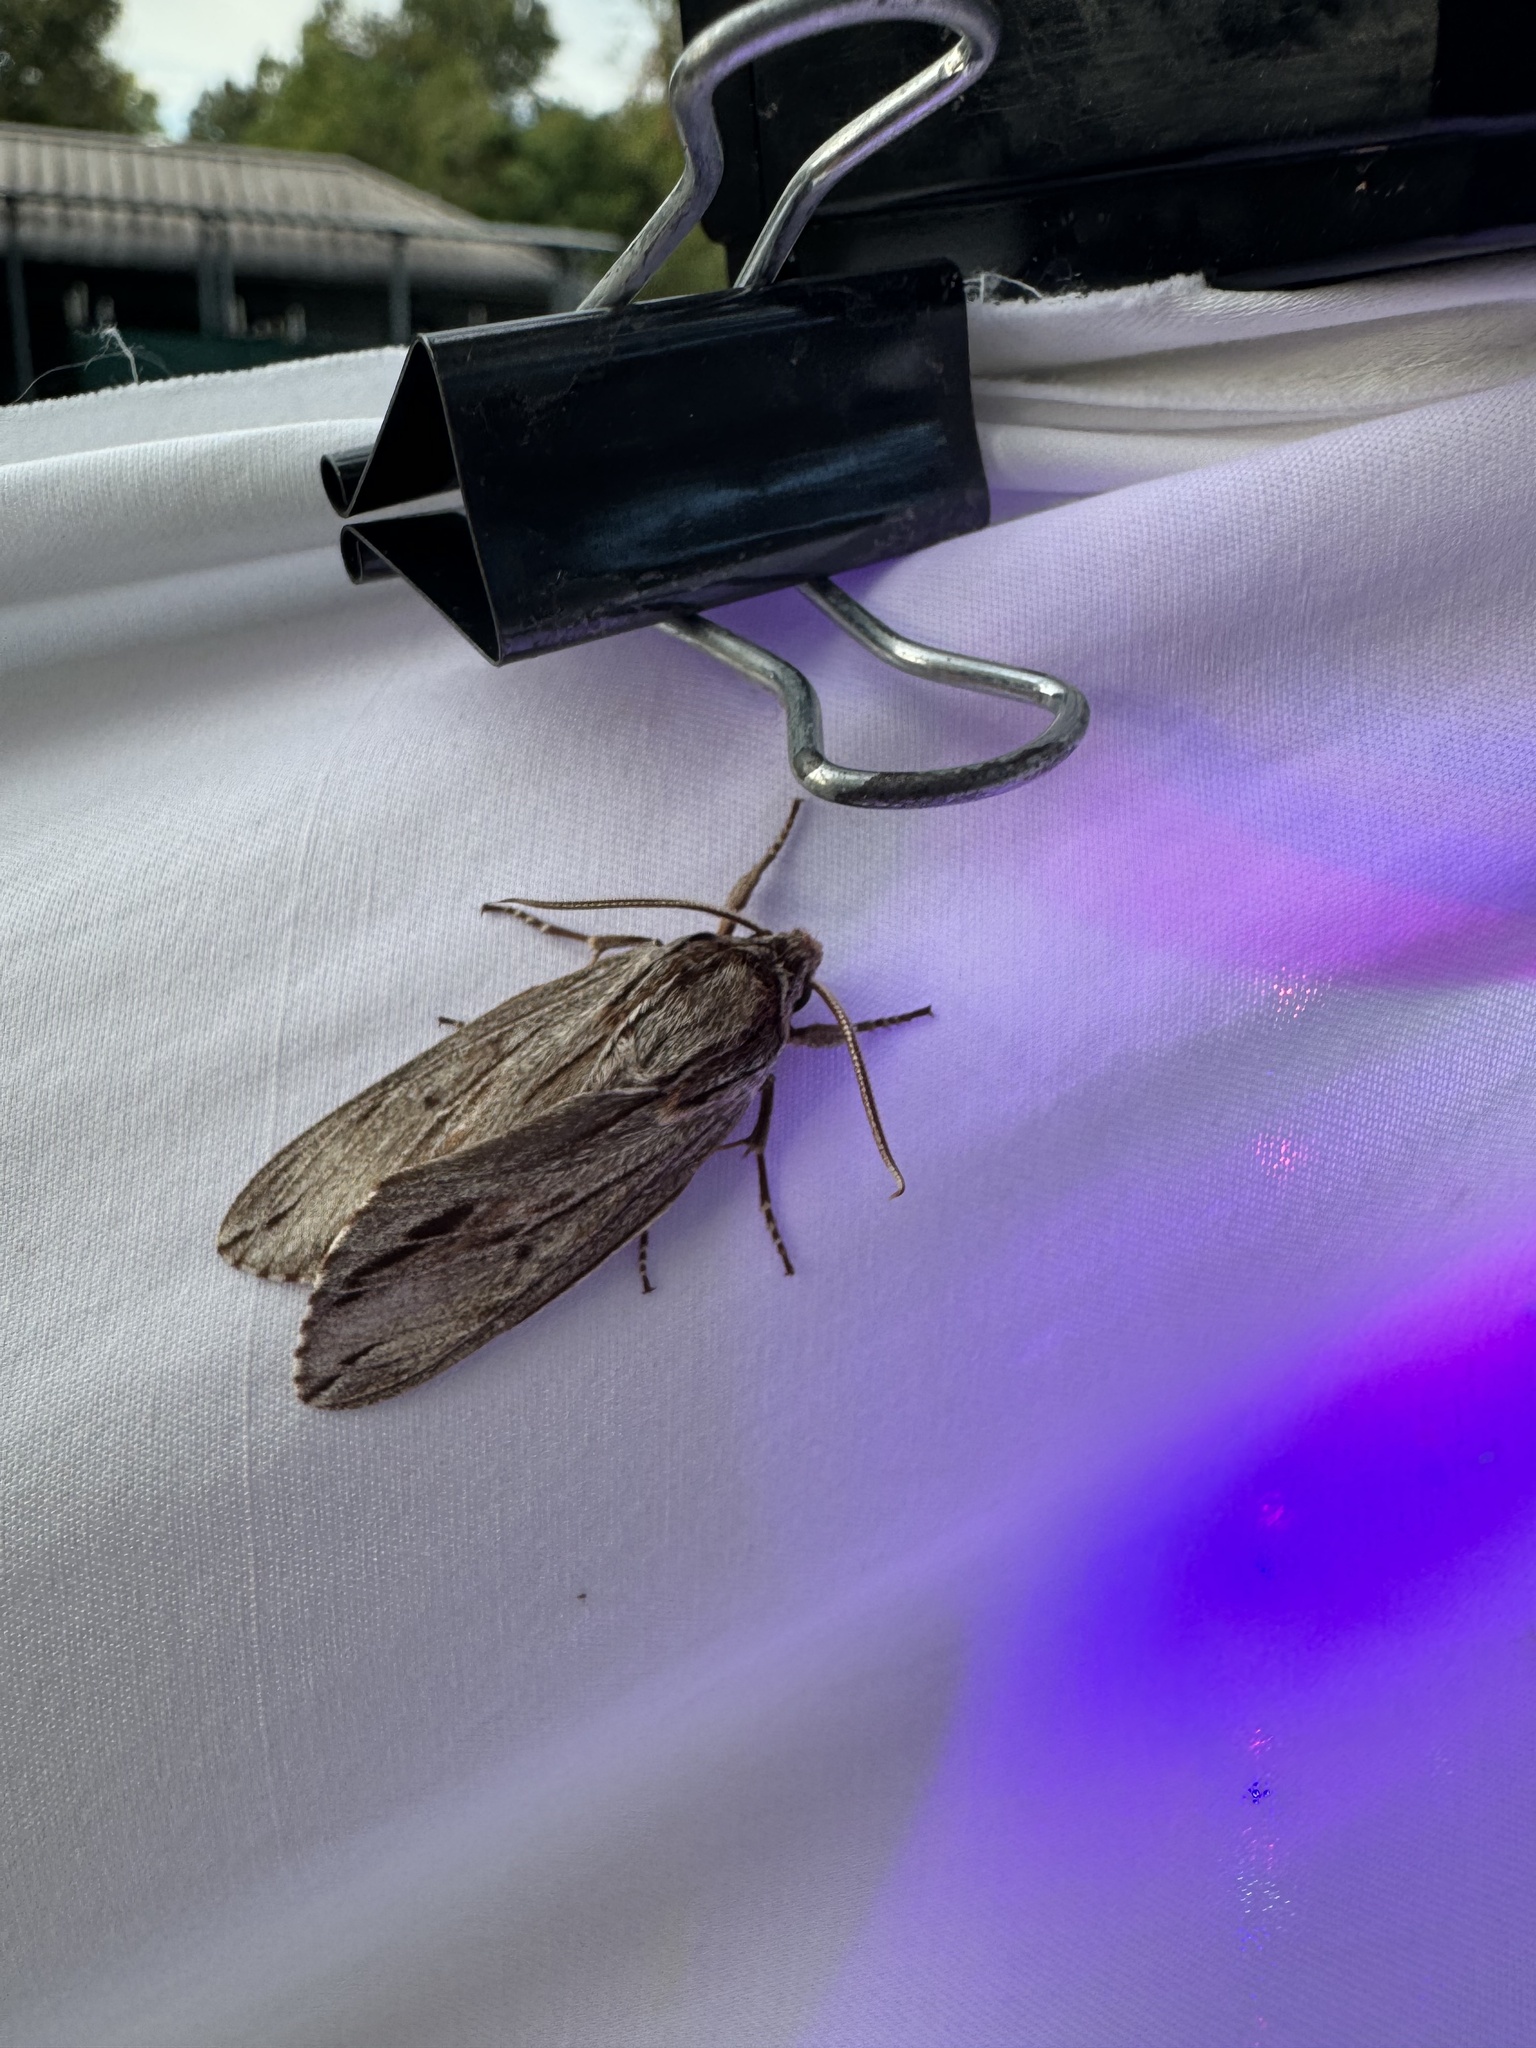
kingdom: Animalia
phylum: Arthropoda
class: Insecta
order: Lepidoptera
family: Sphingidae
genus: Isoparce
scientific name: Isoparce cupressi
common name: Cypress sphinx
